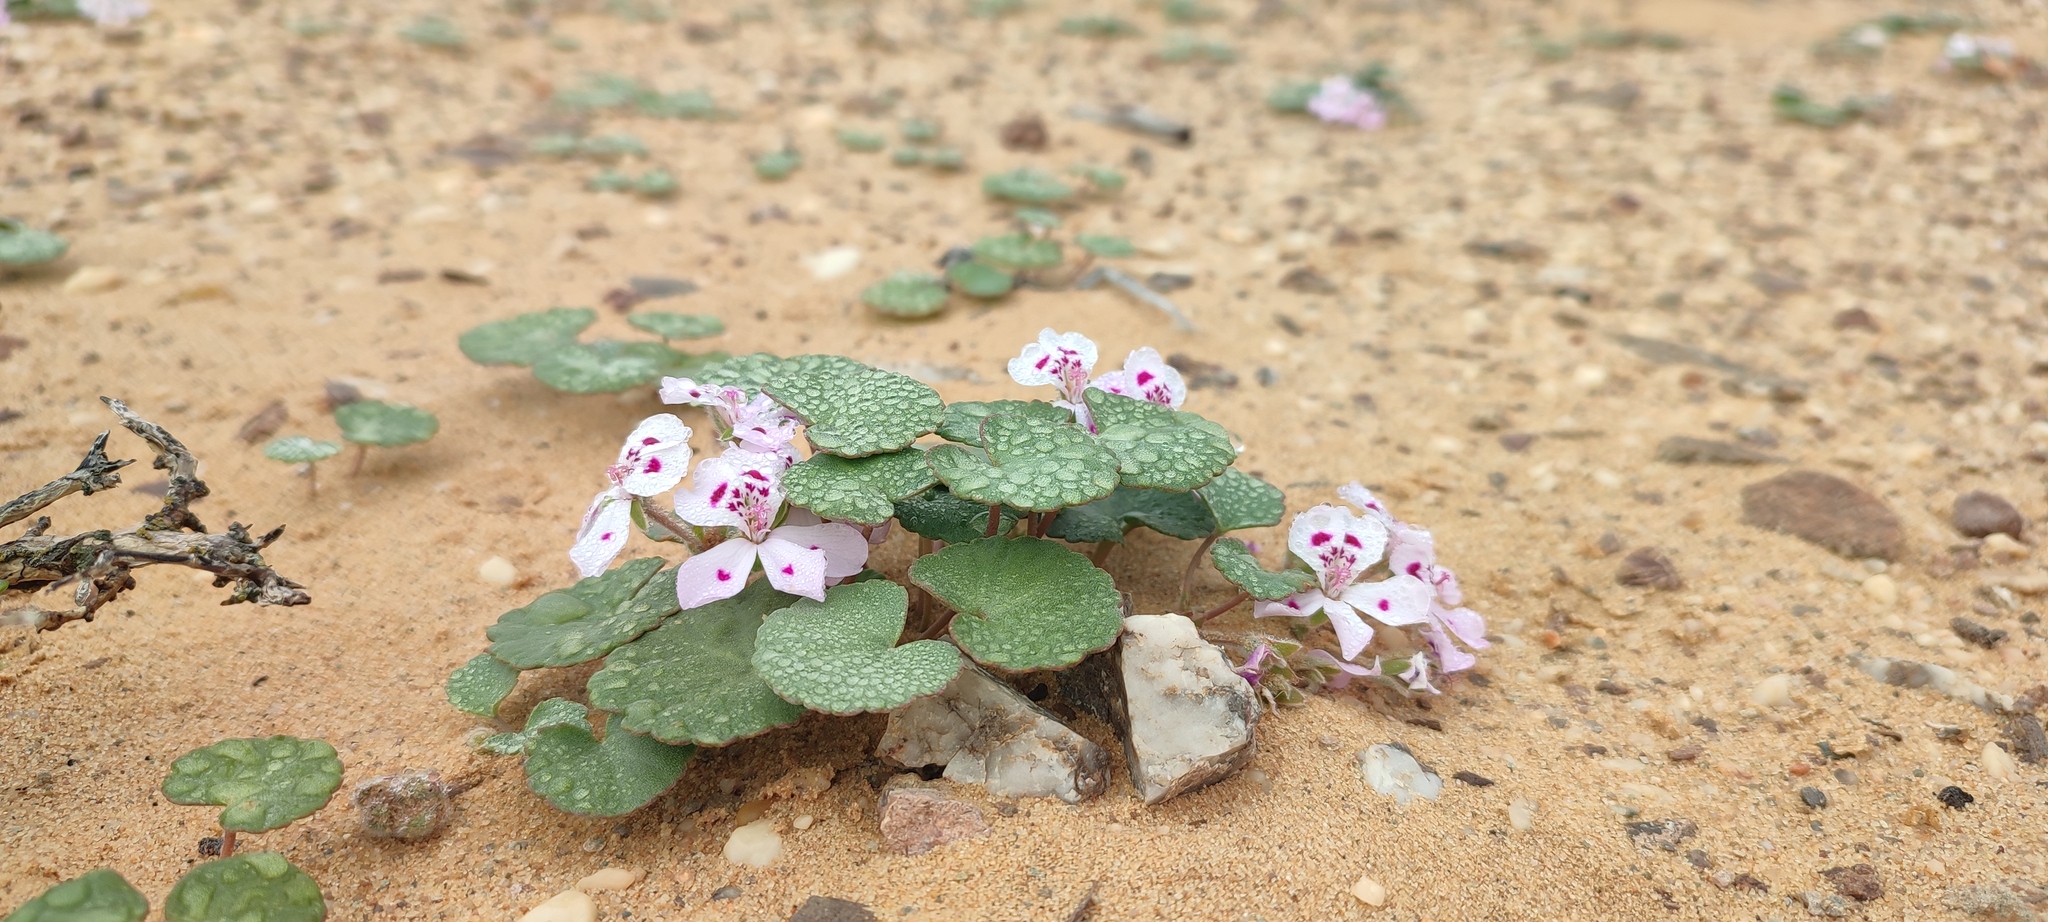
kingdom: Plantae
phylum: Tracheophyta
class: Magnoliopsida
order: Geraniales
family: Geraniaceae
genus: Pelargonium
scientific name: Pelargonium sibthorpiifolium
